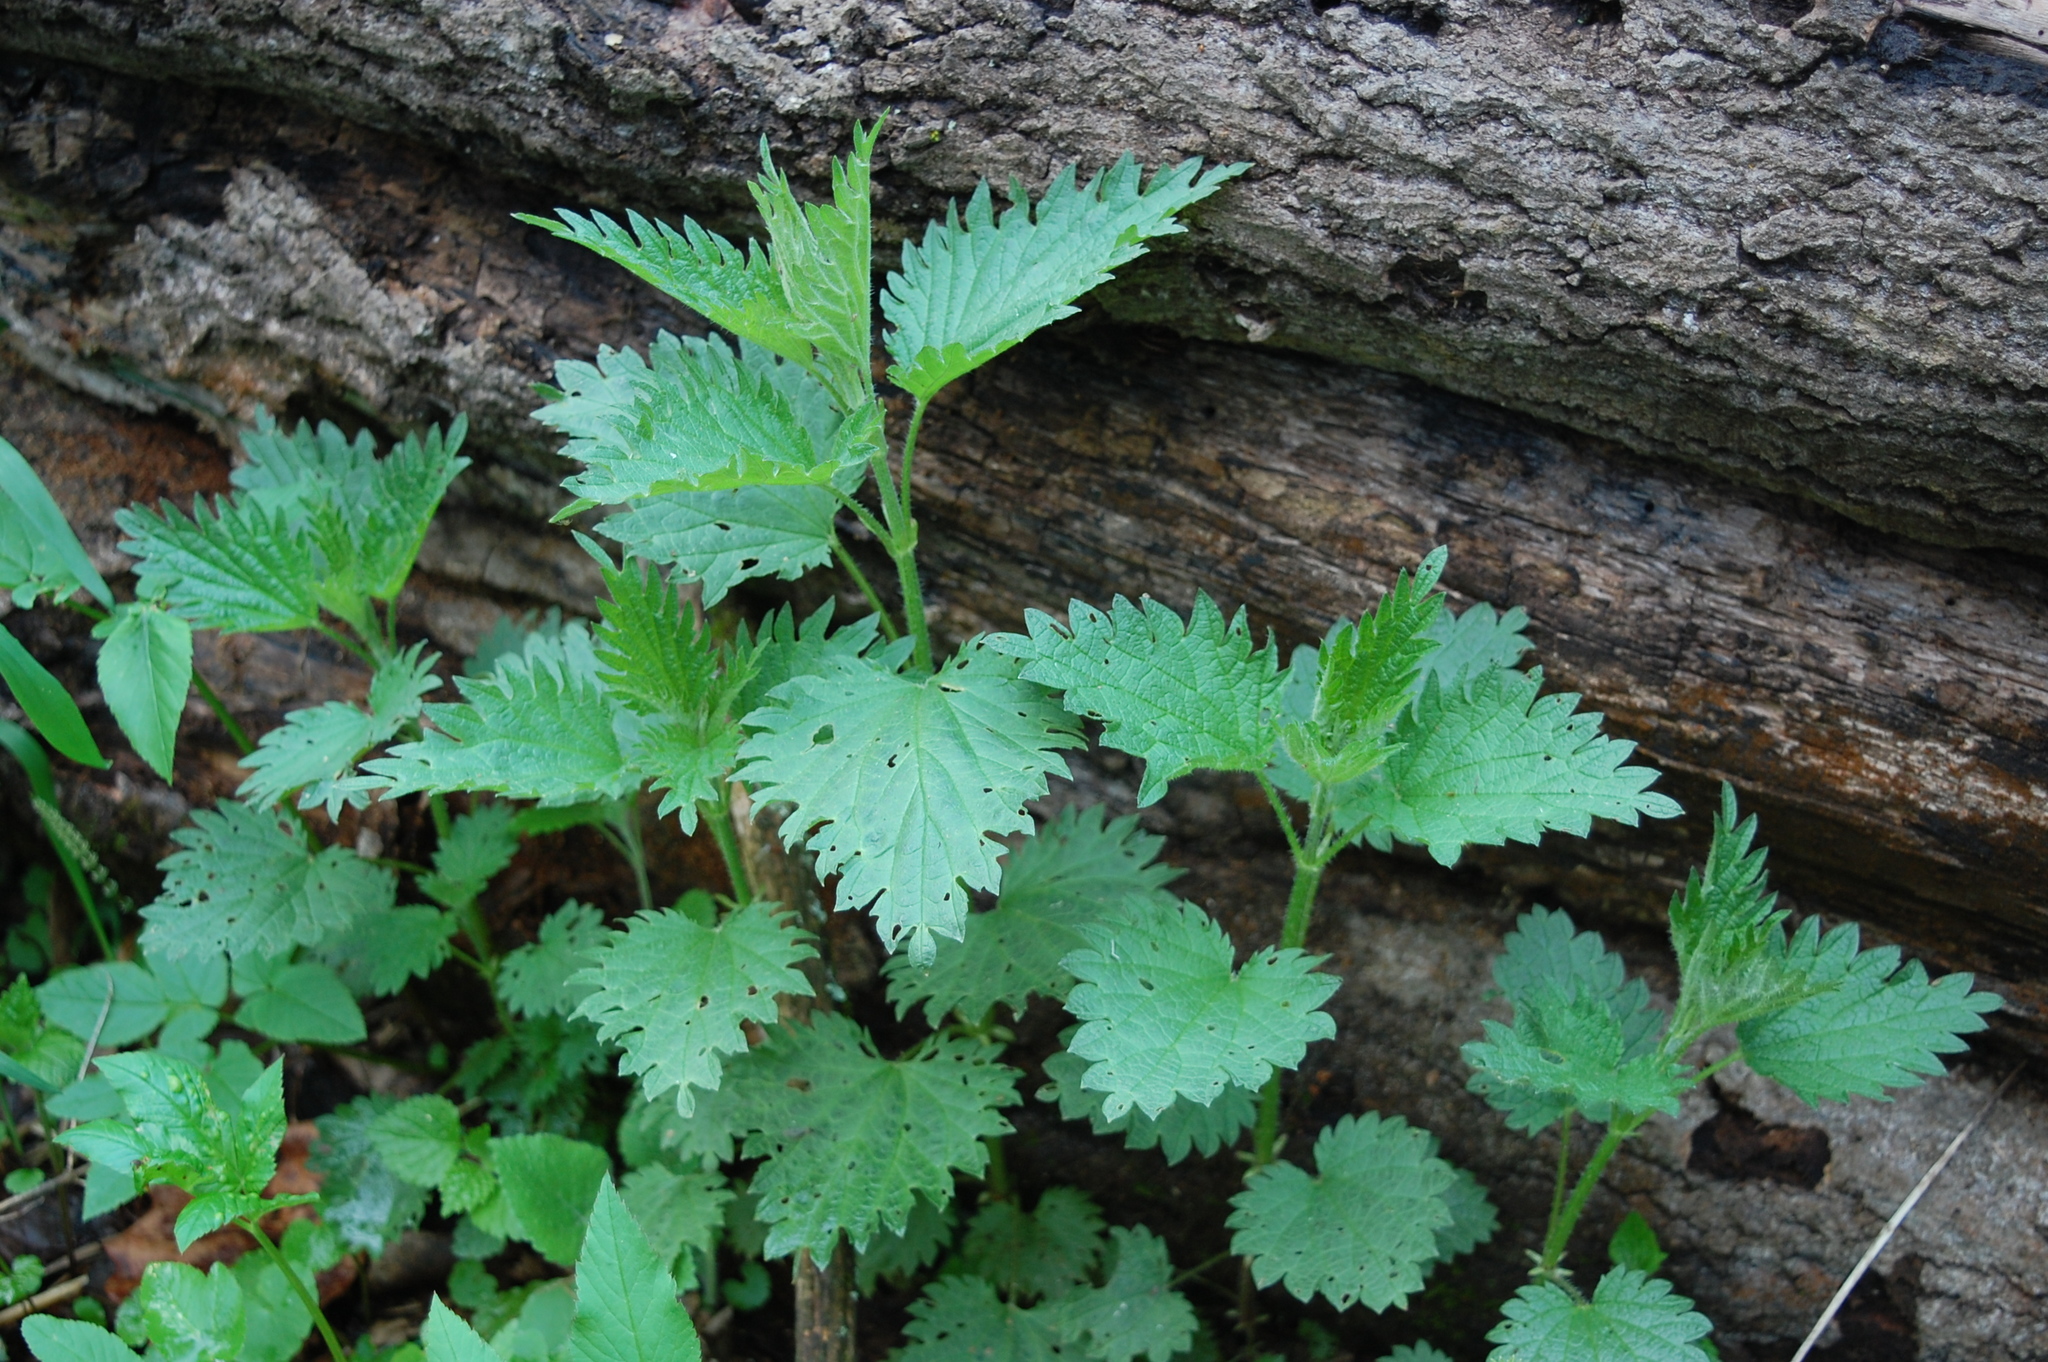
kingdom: Plantae
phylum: Tracheophyta
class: Magnoliopsida
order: Rosales
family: Urticaceae
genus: Urtica
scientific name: Urtica dioica
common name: Common nettle
